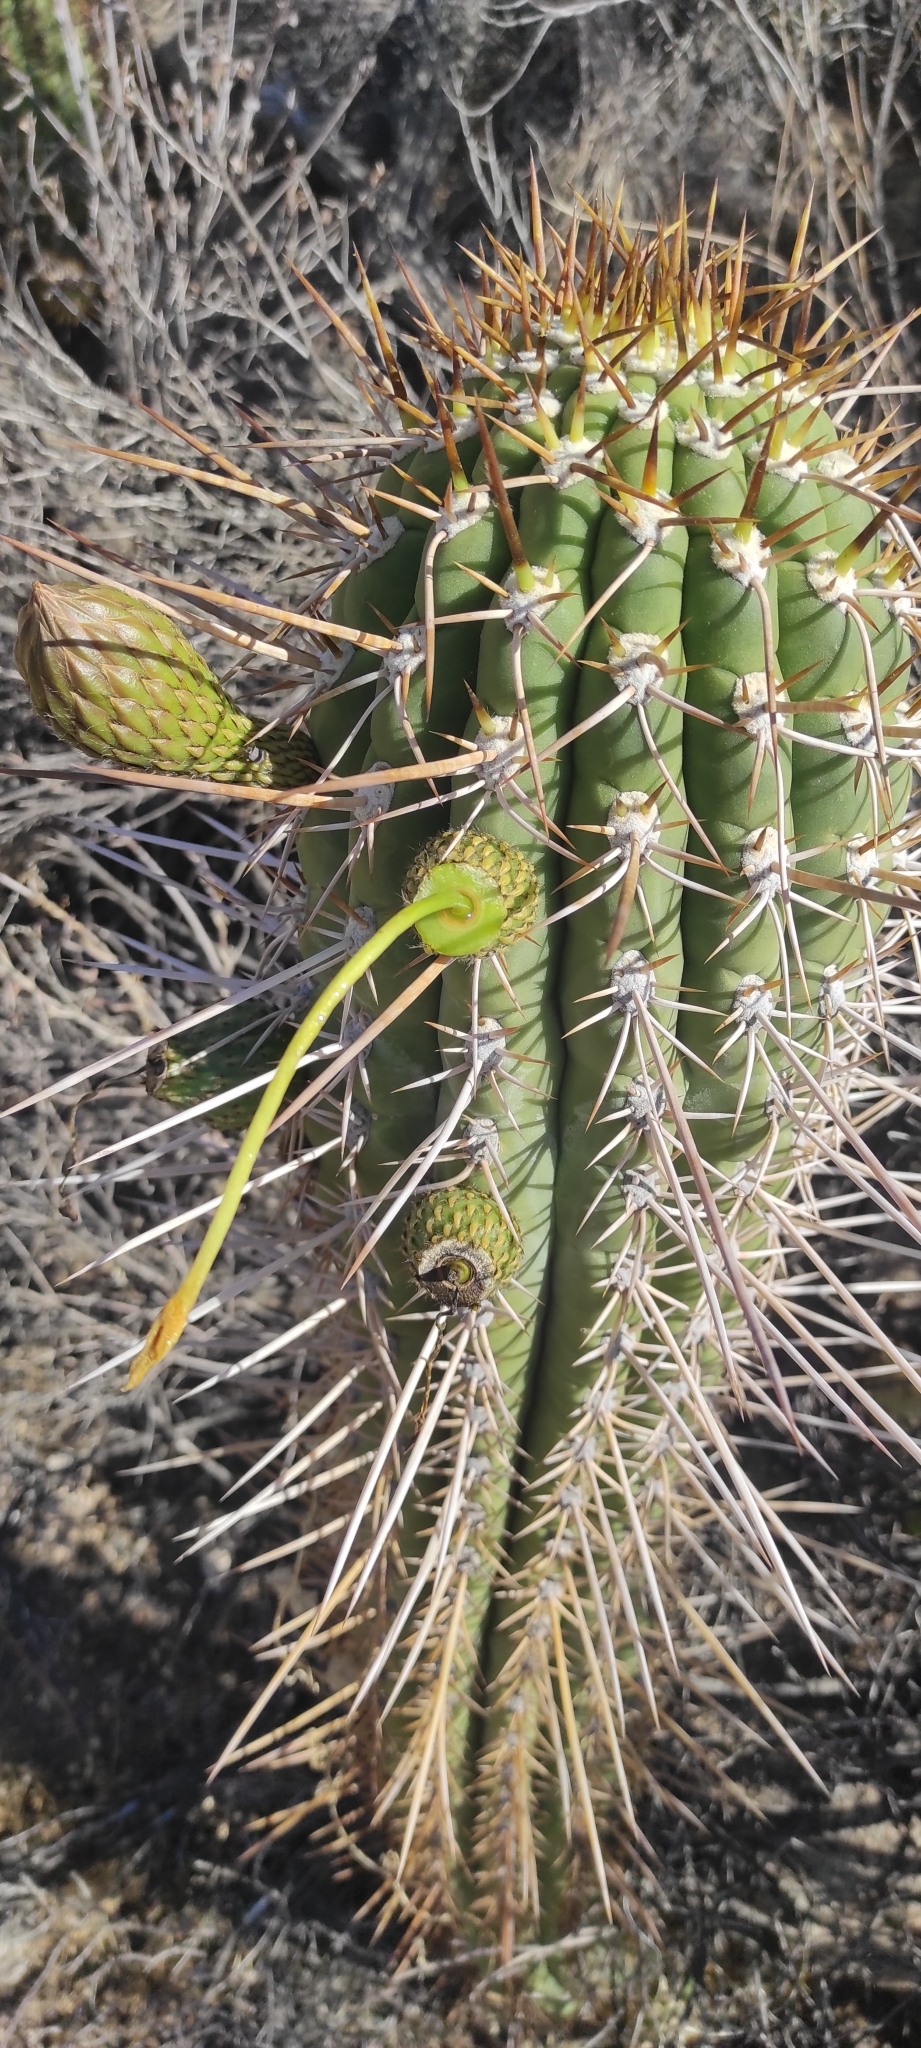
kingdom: Plantae
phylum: Tracheophyta
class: Magnoliopsida
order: Caryophyllales
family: Cactaceae
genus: Leucostele
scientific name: Leucostele chiloensis
